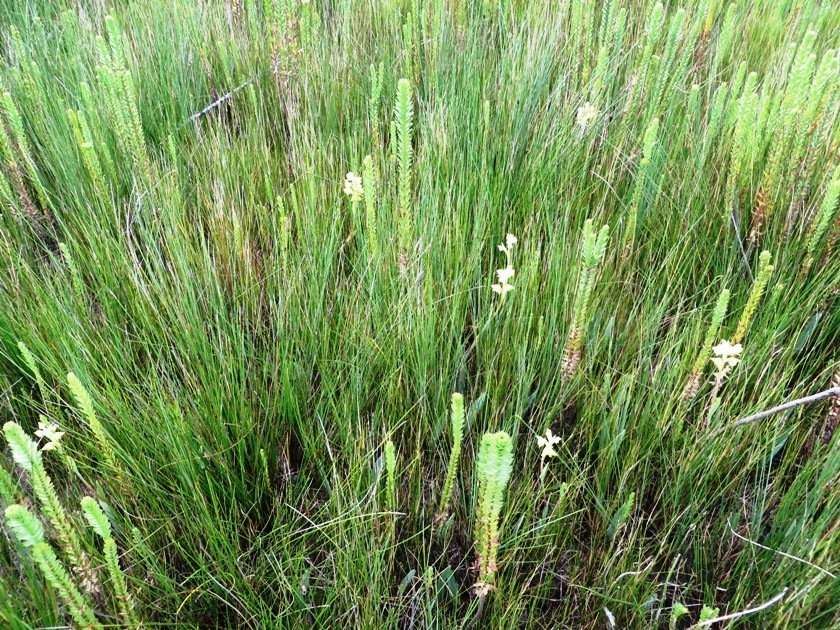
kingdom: Plantae
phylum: Tracheophyta
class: Liliopsida
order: Asparagales
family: Orchidaceae
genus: Pterygodium
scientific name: Pterygodium acutifolium
